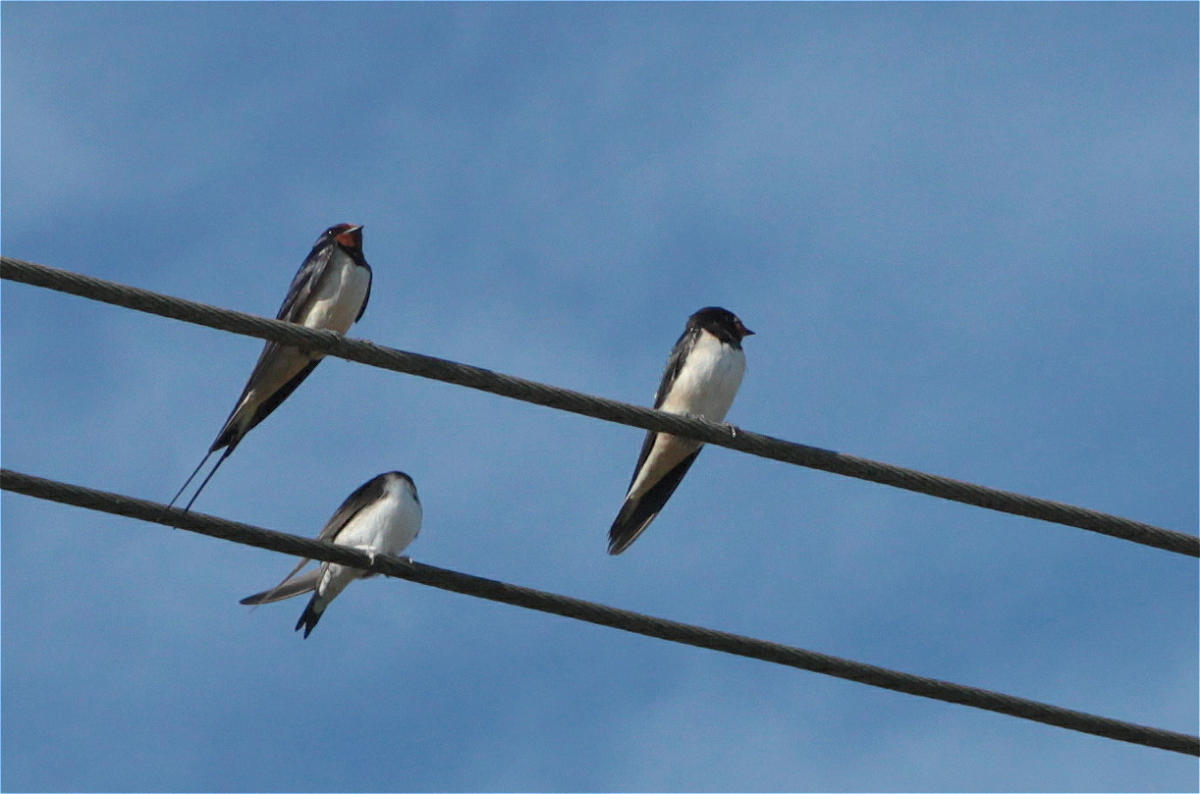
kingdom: Animalia
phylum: Chordata
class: Aves
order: Passeriformes
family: Hirundinidae
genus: Hirundo
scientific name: Hirundo rustica
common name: Barn swallow
